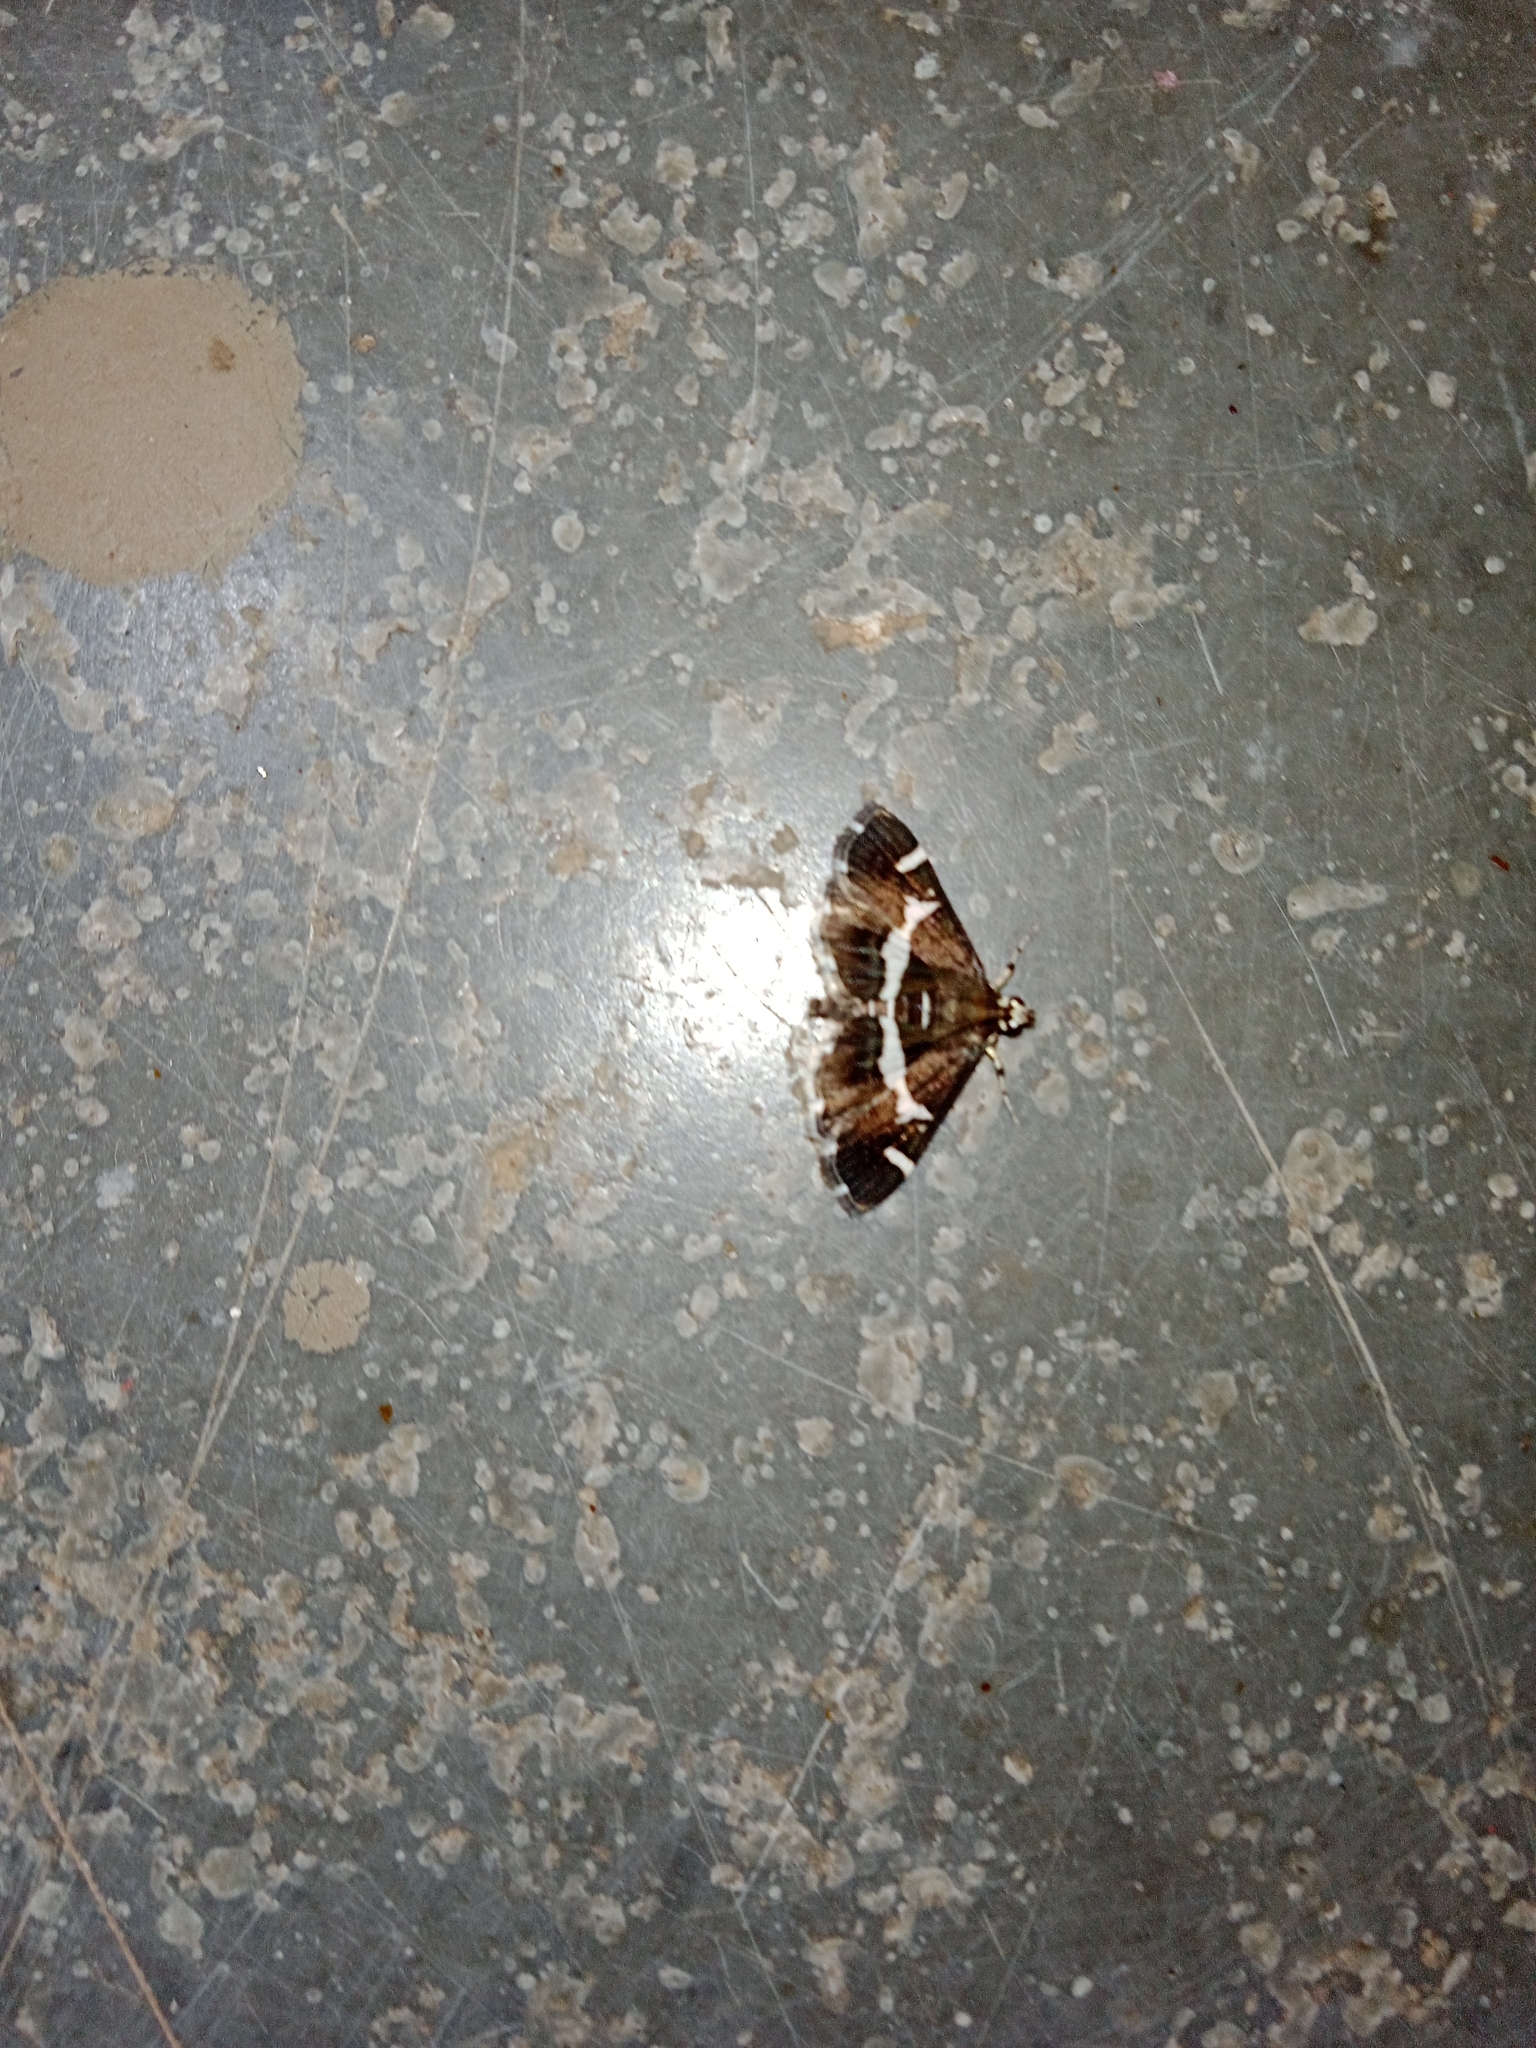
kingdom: Animalia
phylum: Arthropoda
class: Insecta
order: Lepidoptera
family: Crambidae
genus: Spoladea
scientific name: Spoladea recurvalis
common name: Beet webworm moth
